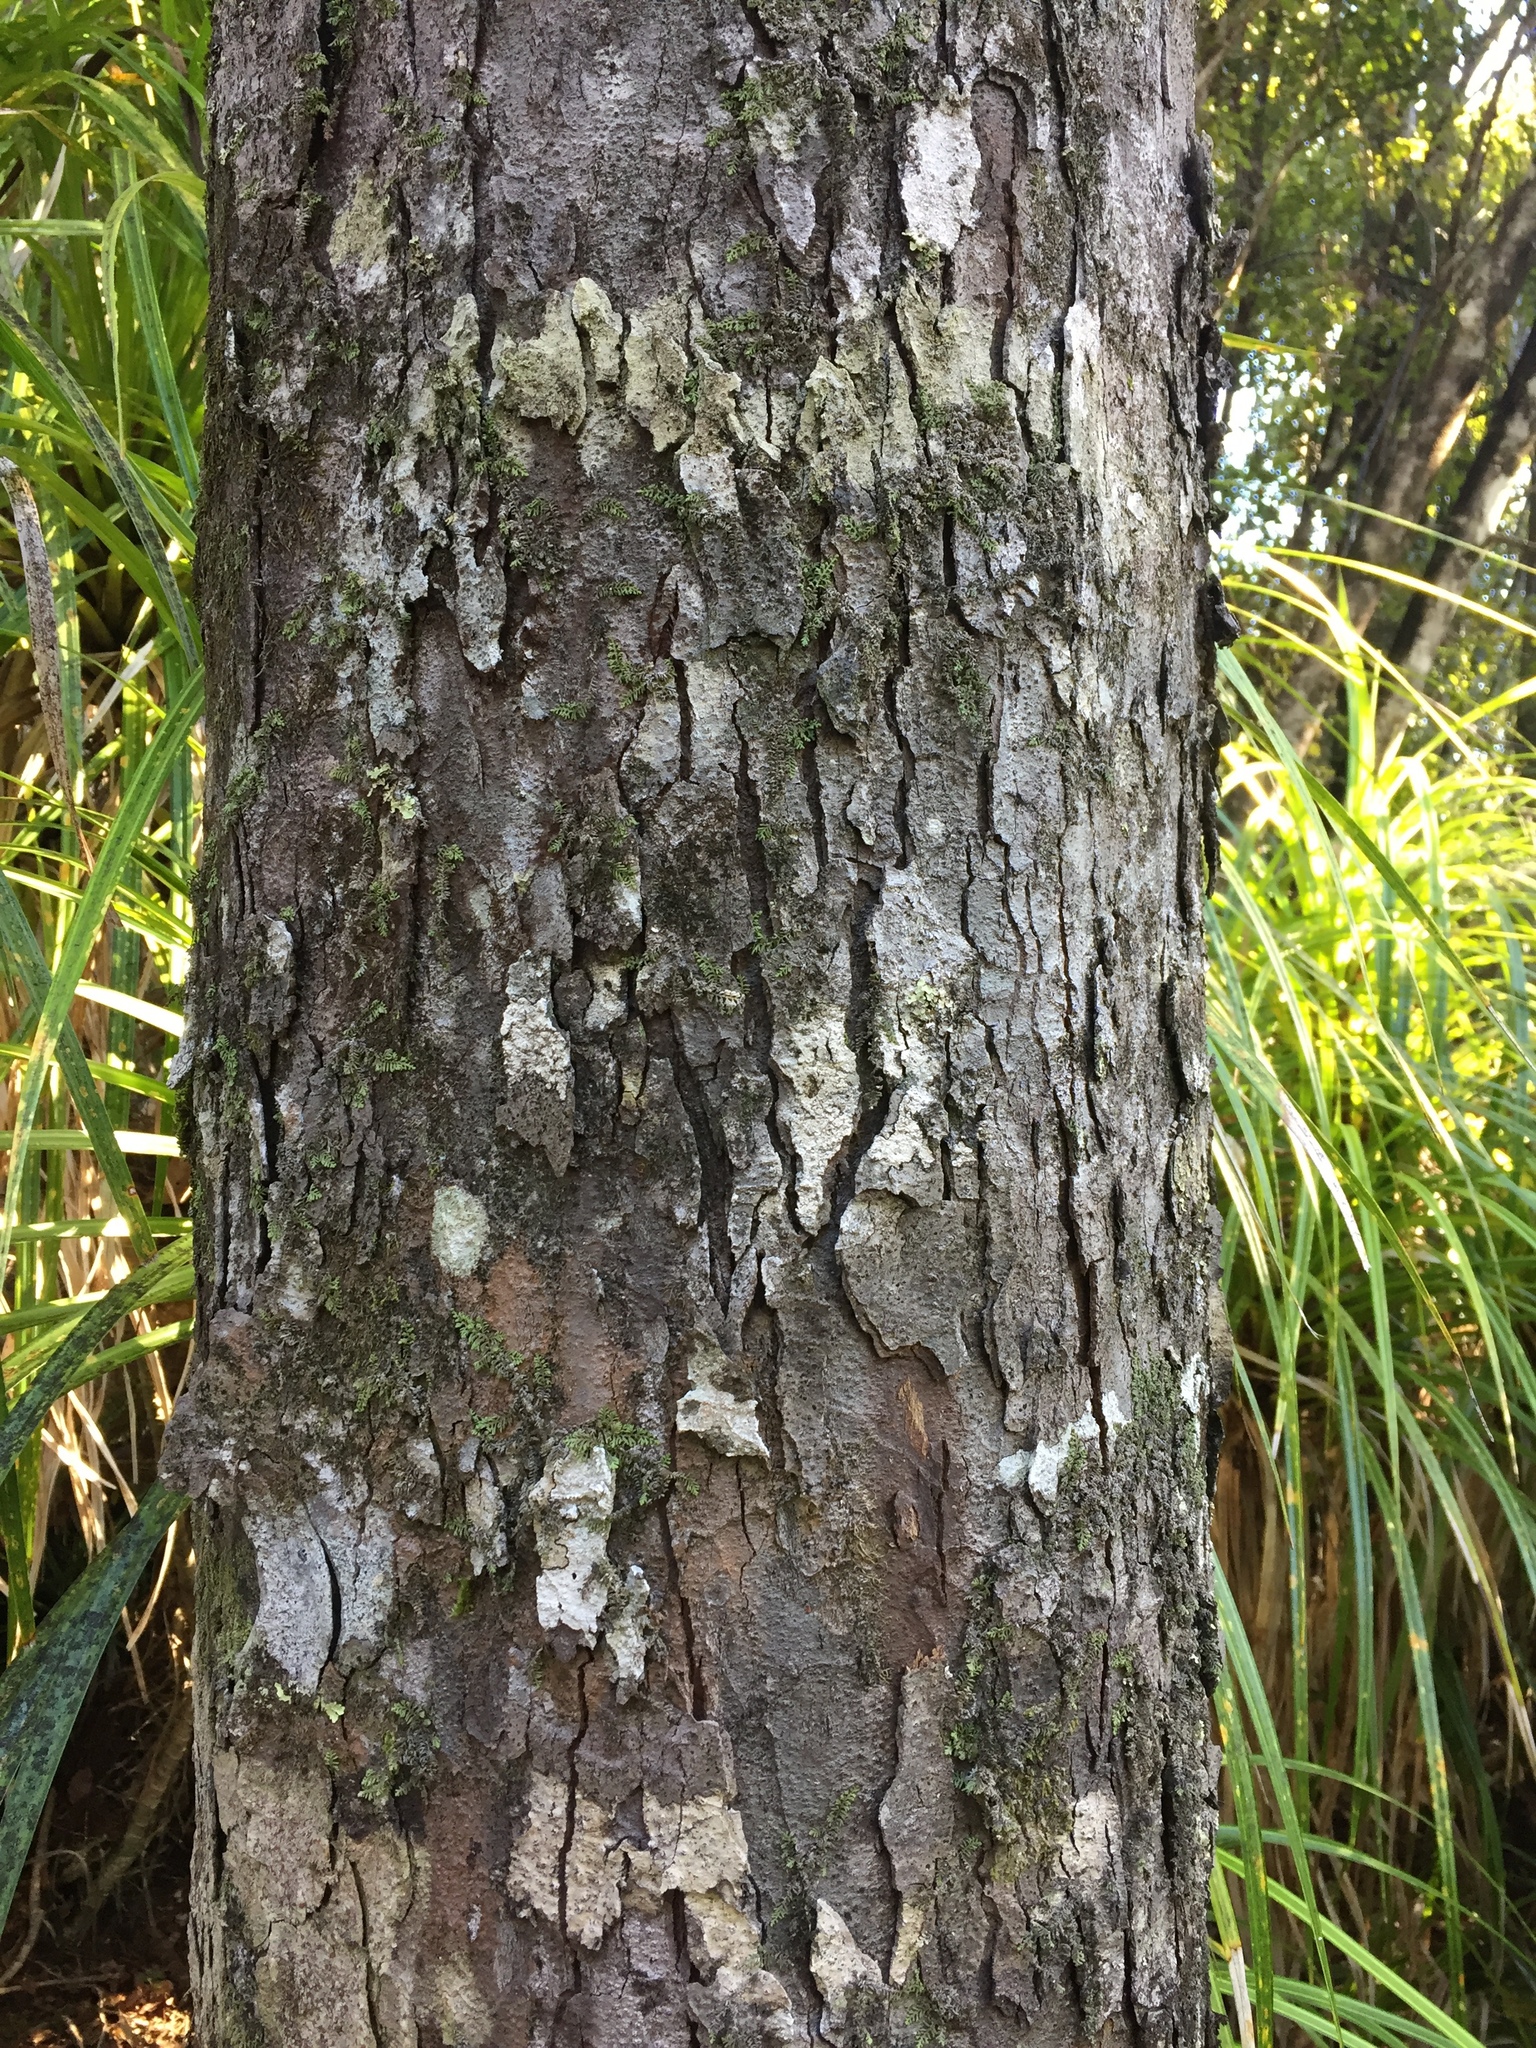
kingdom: Plantae
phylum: Tracheophyta
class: Pinopsida
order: Pinales
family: Podocarpaceae
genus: Prumnopitys
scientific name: Prumnopitys ferruginea
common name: Brown pine
